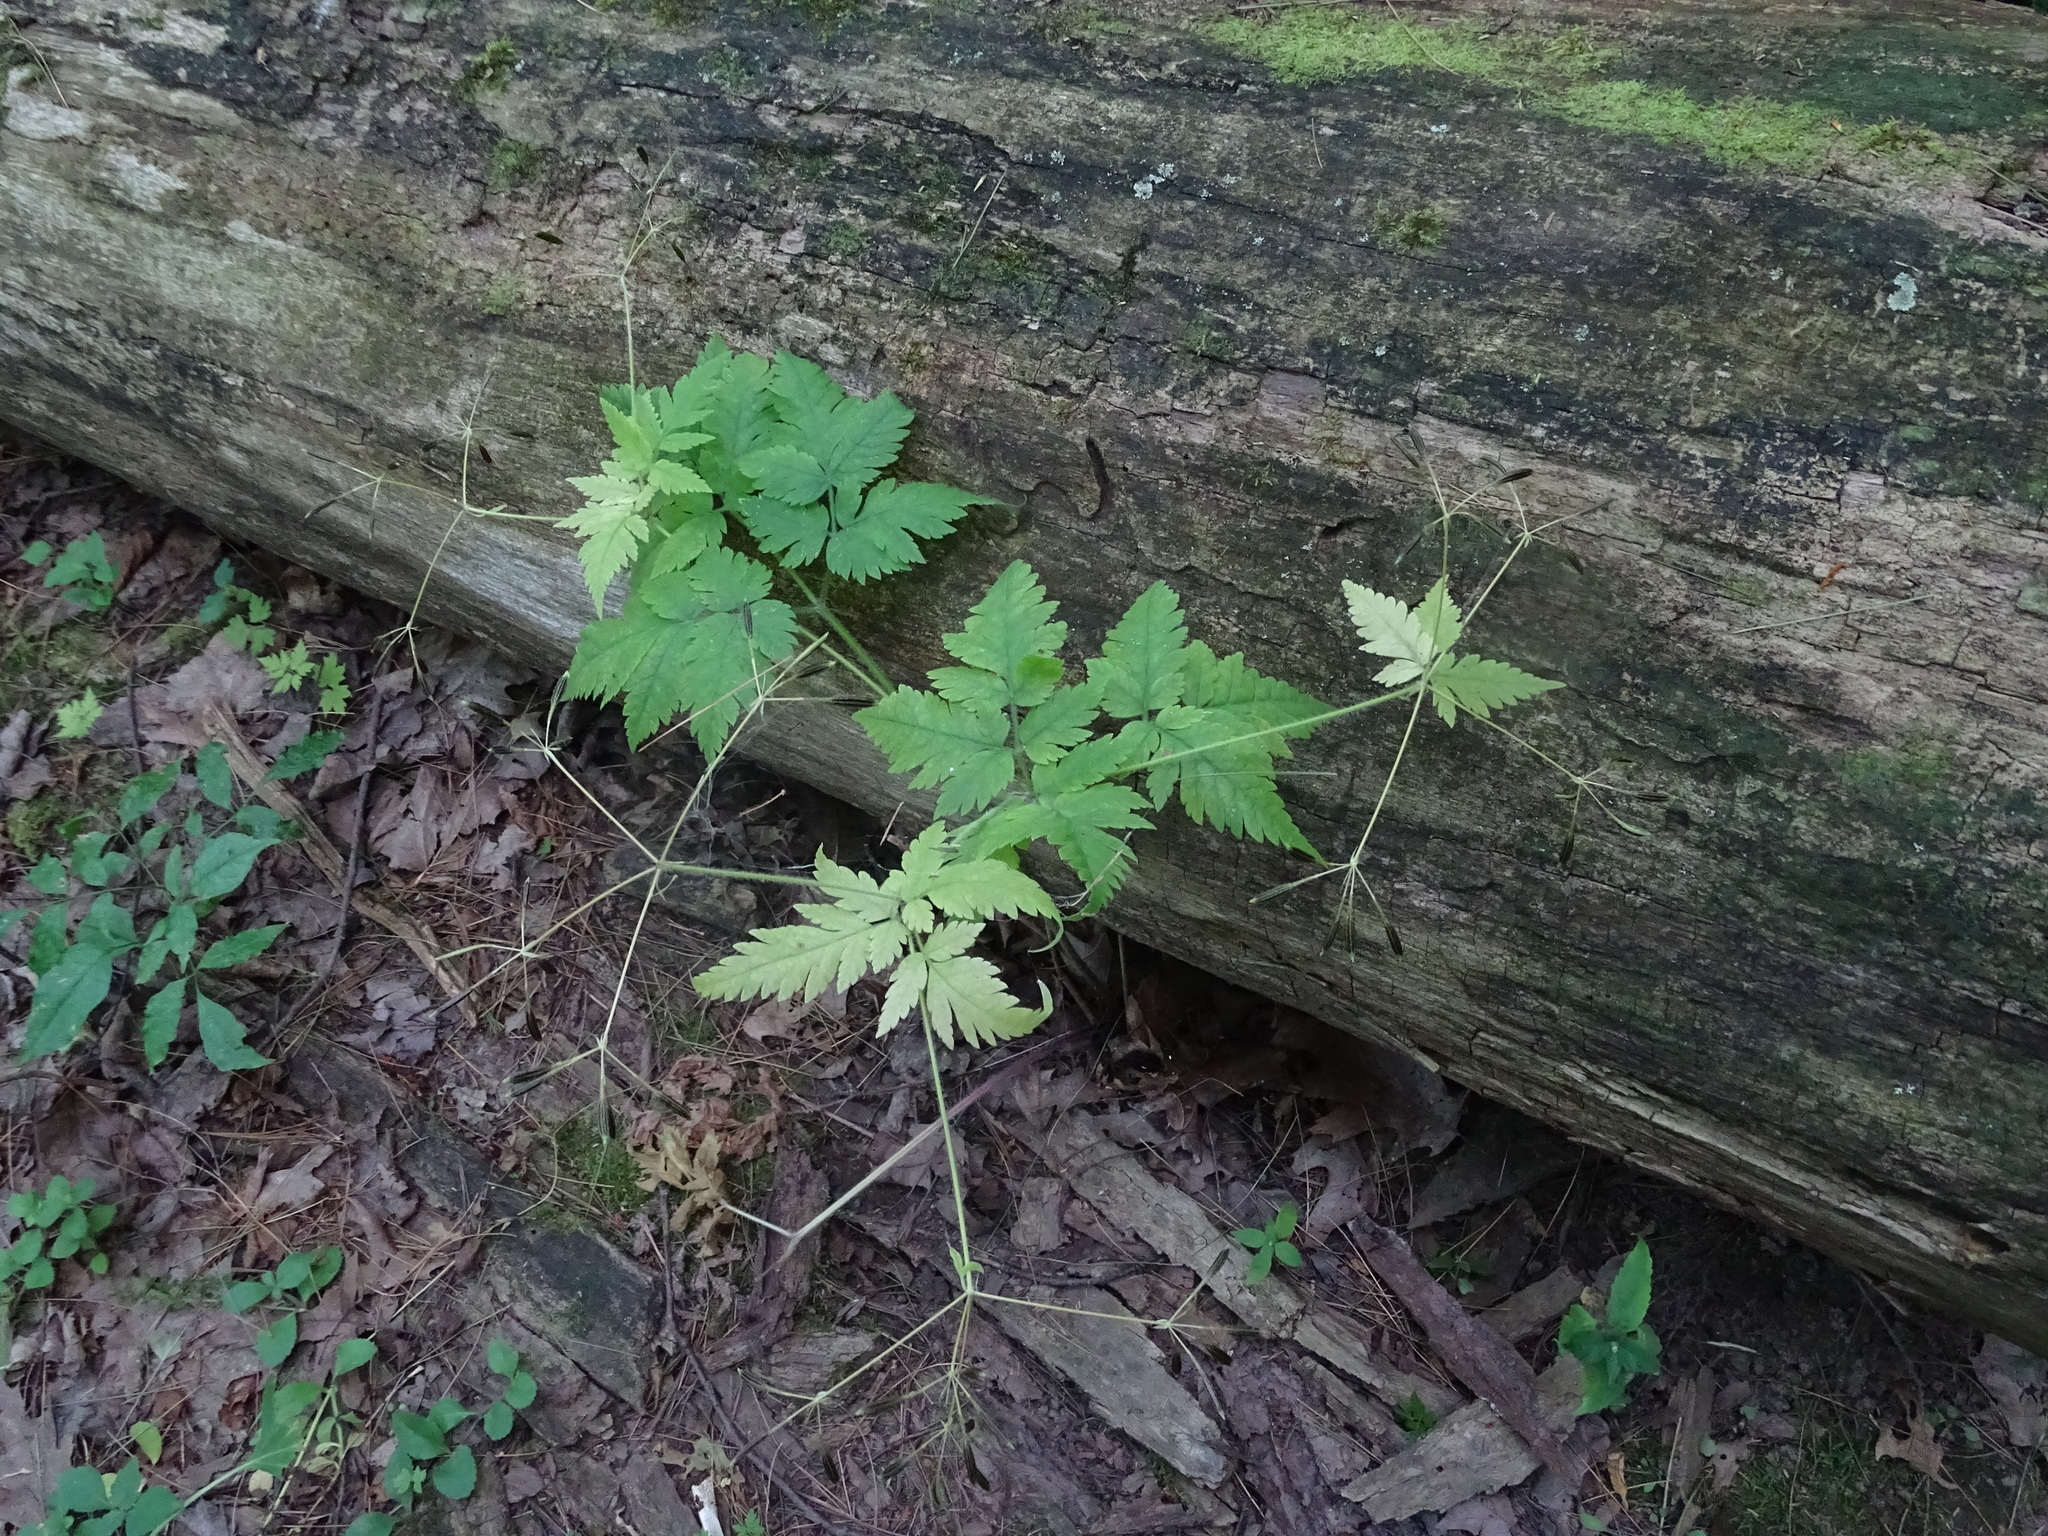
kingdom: Plantae
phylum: Tracheophyta
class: Magnoliopsida
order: Apiales
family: Apiaceae
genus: Osmorhiza
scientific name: Osmorhiza claytonii
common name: Hairy sweet cicely
